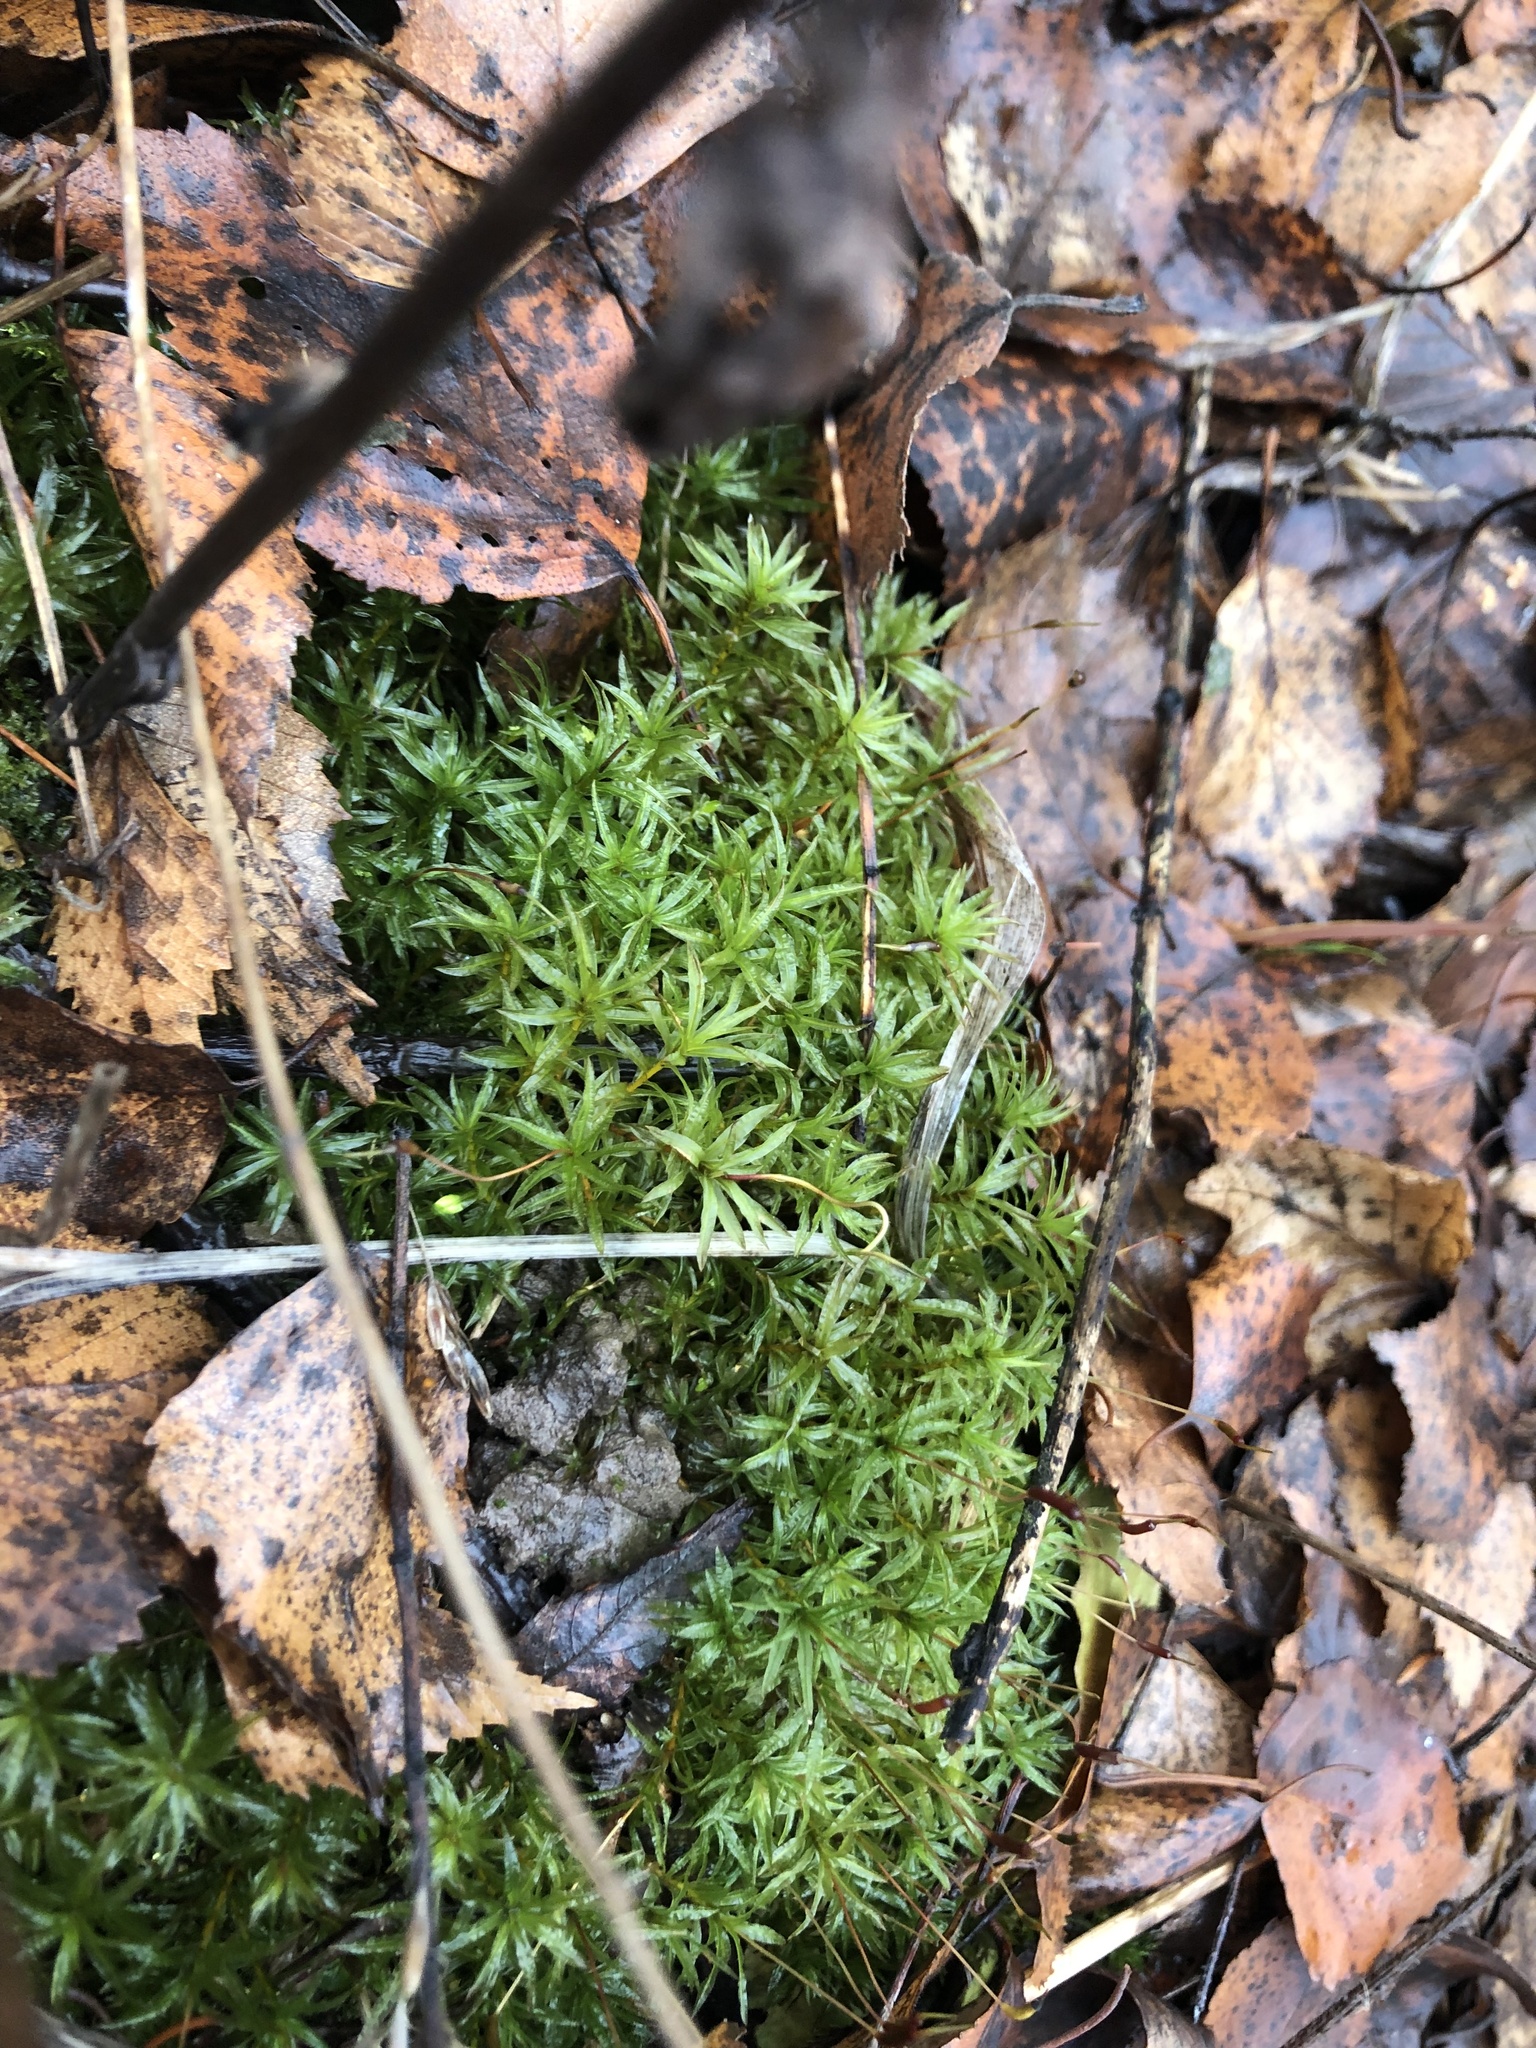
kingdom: Plantae
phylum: Bryophyta
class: Polytrichopsida
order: Polytrichales
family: Polytrichaceae
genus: Atrichum
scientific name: Atrichum undulatum
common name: Common smoothcap
